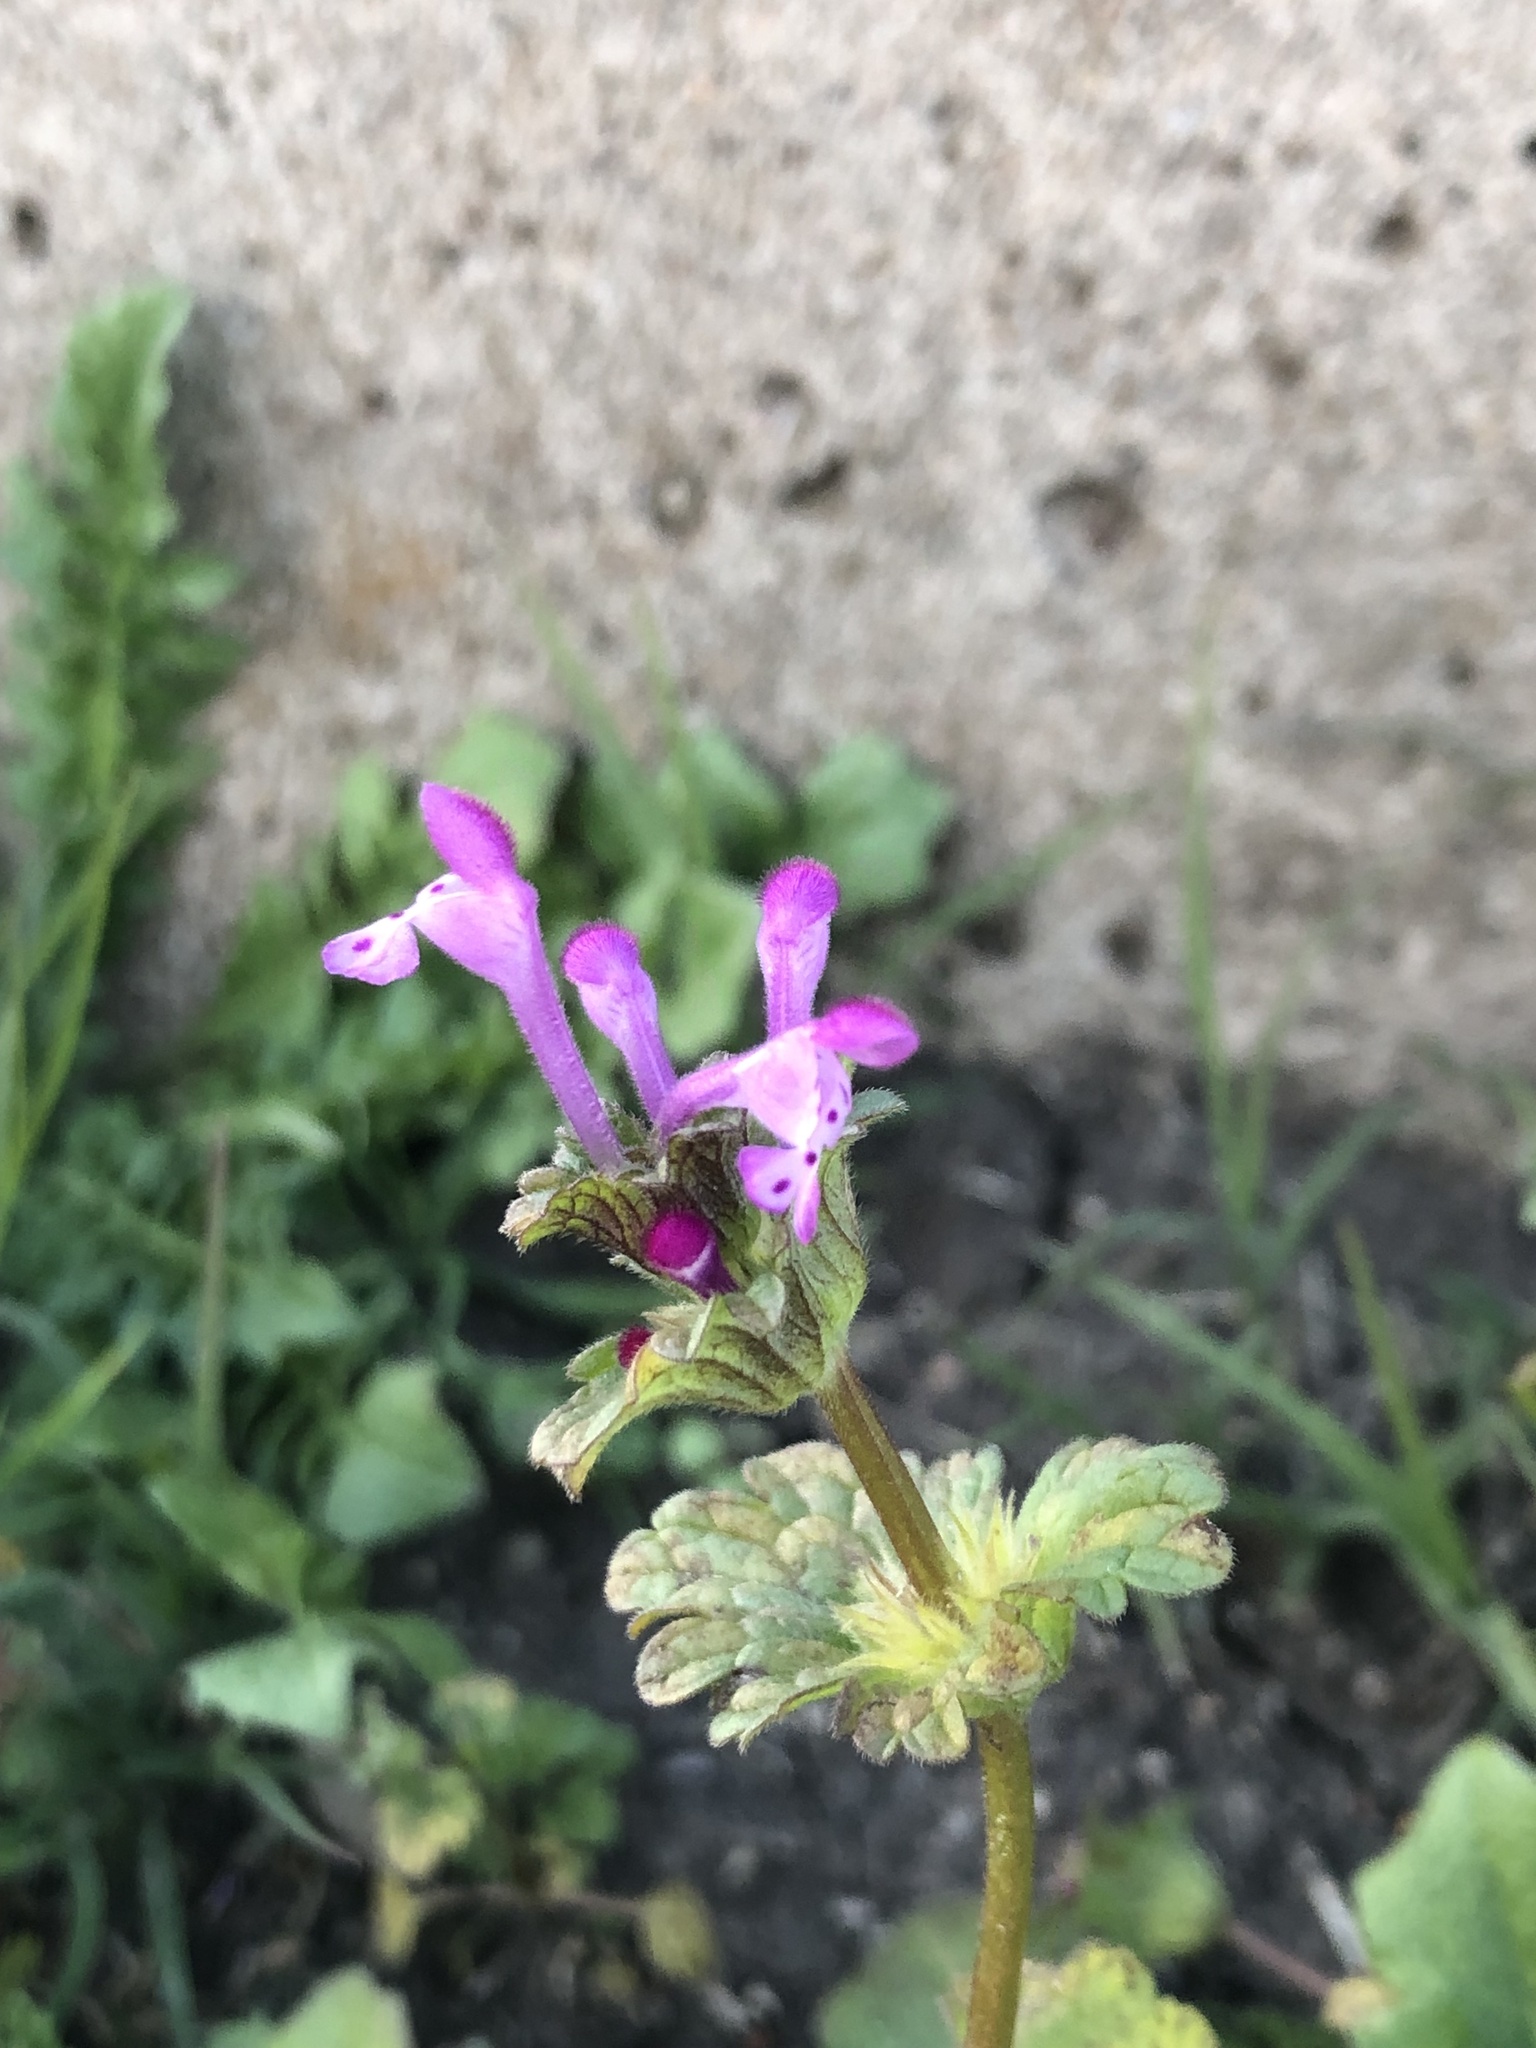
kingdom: Plantae
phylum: Tracheophyta
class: Magnoliopsida
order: Lamiales
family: Lamiaceae
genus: Lamium
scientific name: Lamium amplexicaule
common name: Henbit dead-nettle
